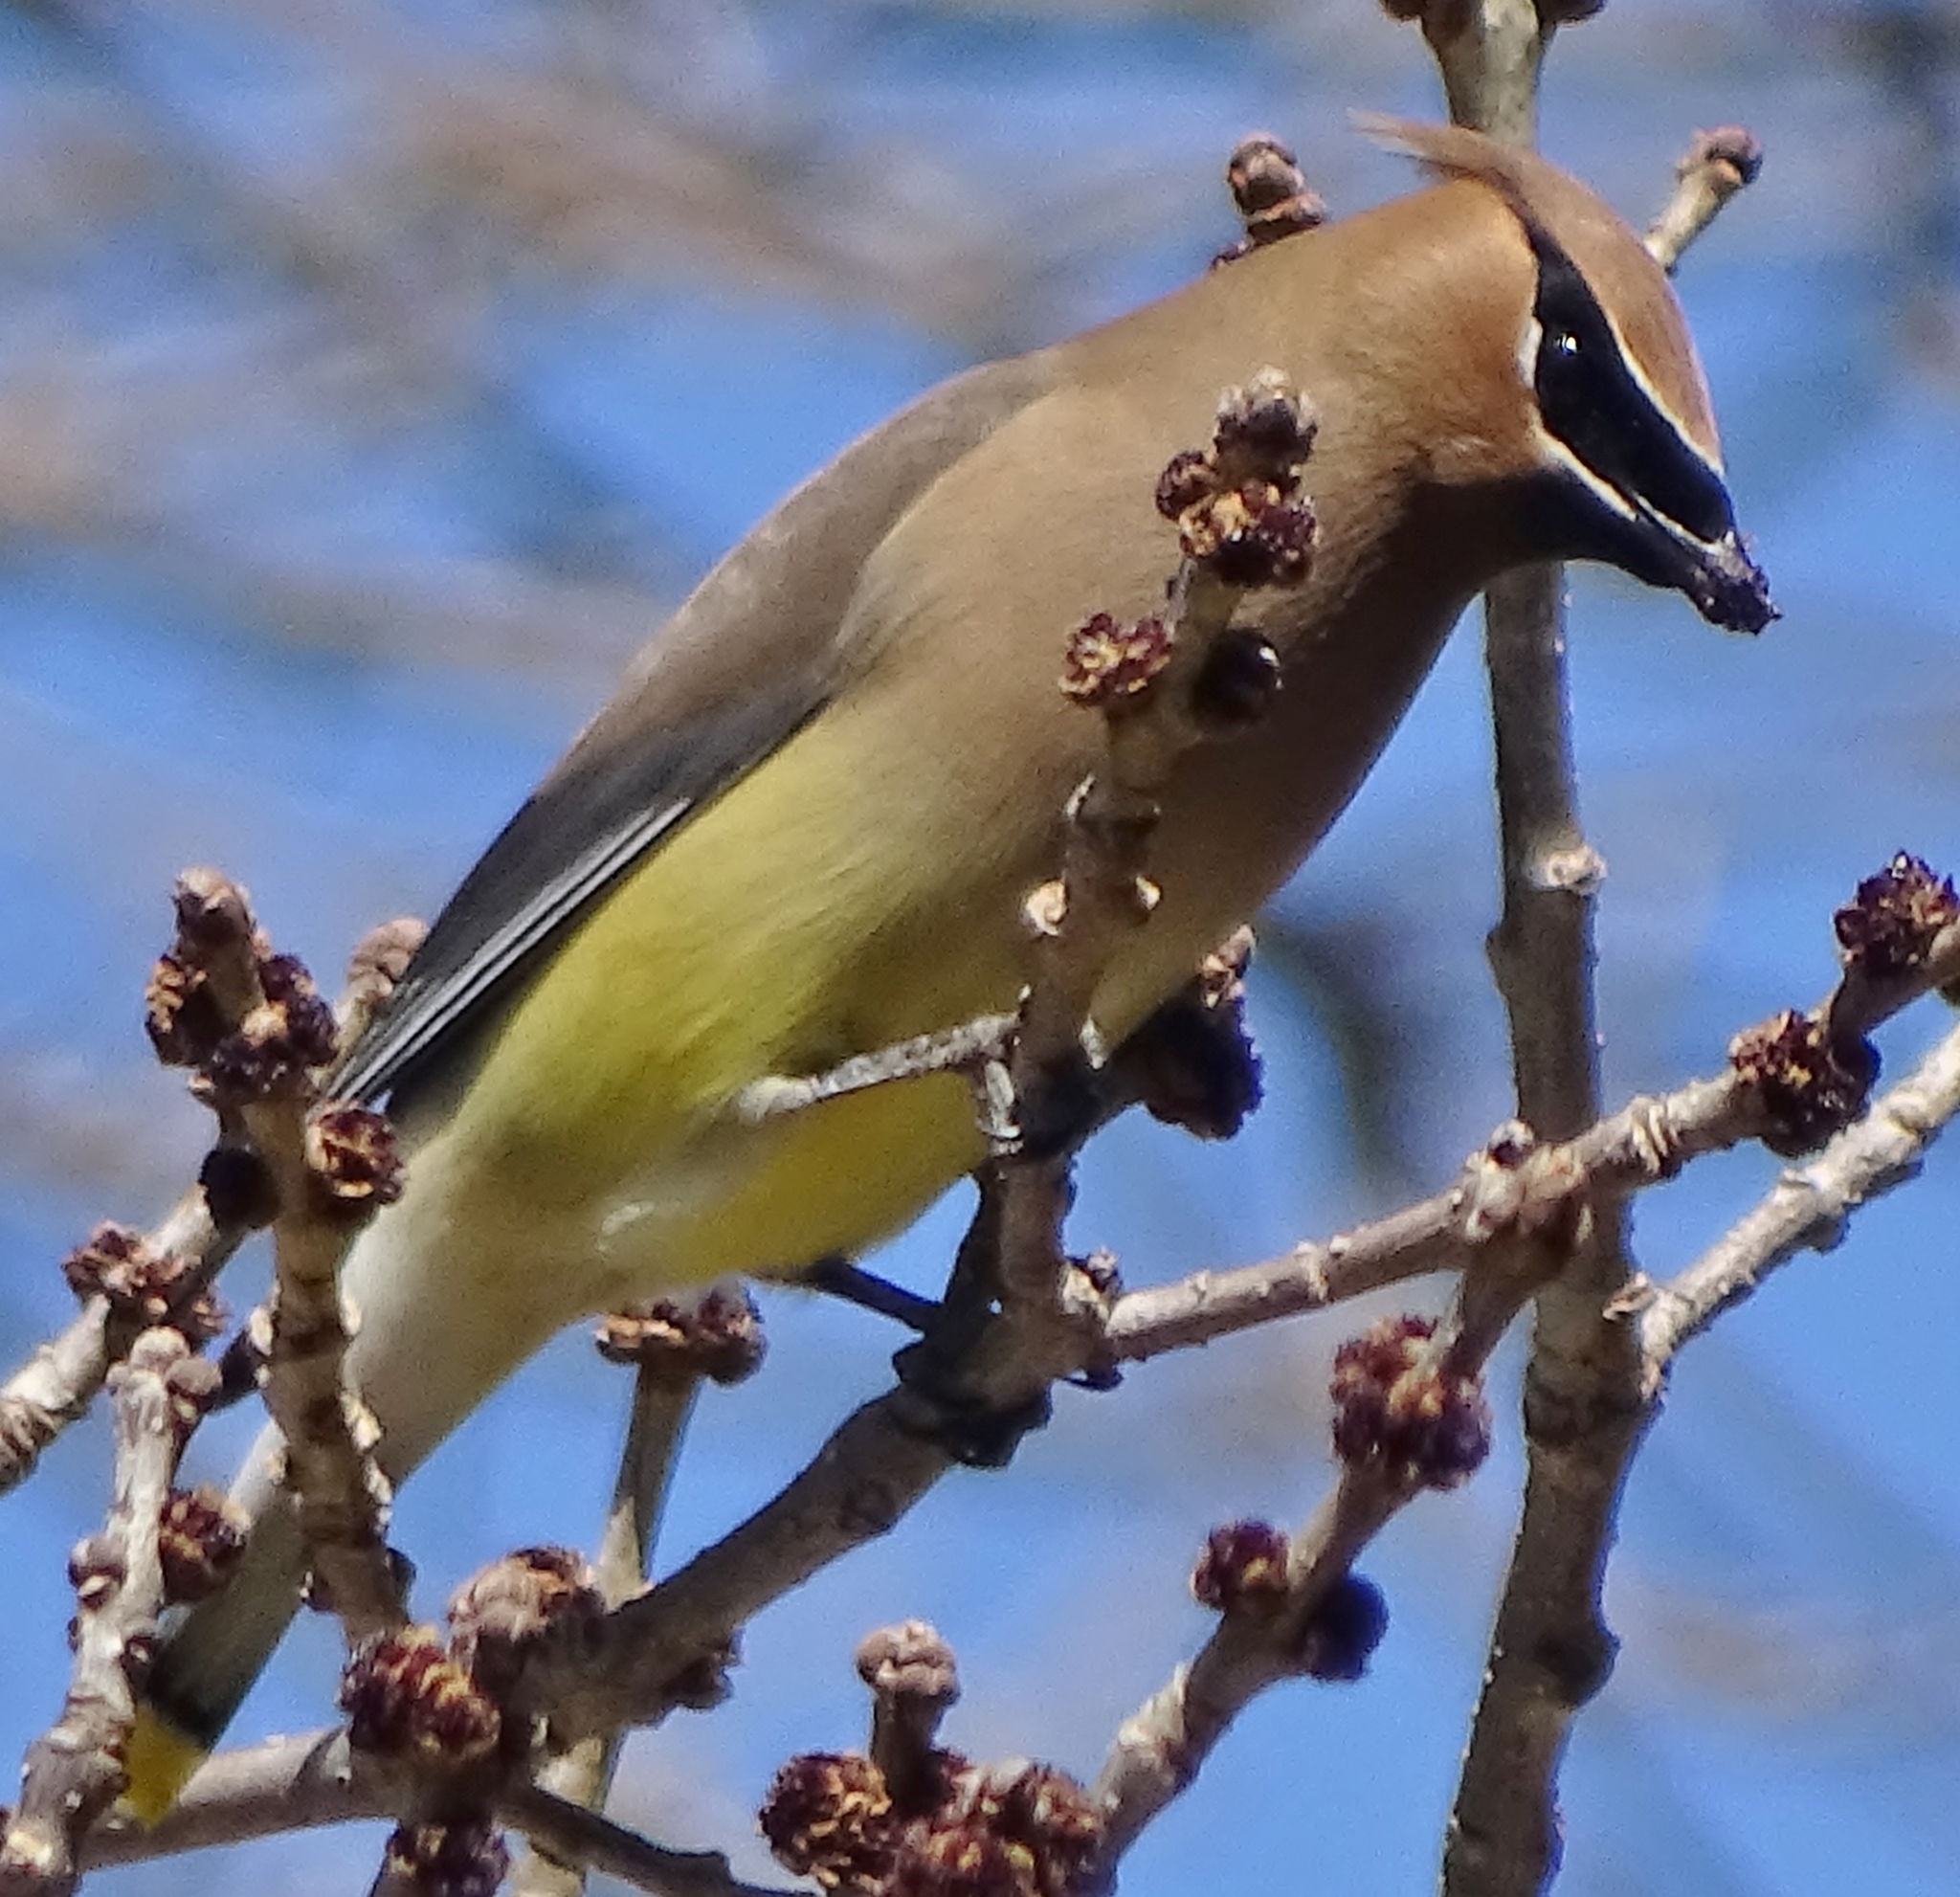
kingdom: Animalia
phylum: Chordata
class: Aves
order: Passeriformes
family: Bombycillidae
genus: Bombycilla
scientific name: Bombycilla cedrorum
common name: Cedar waxwing
